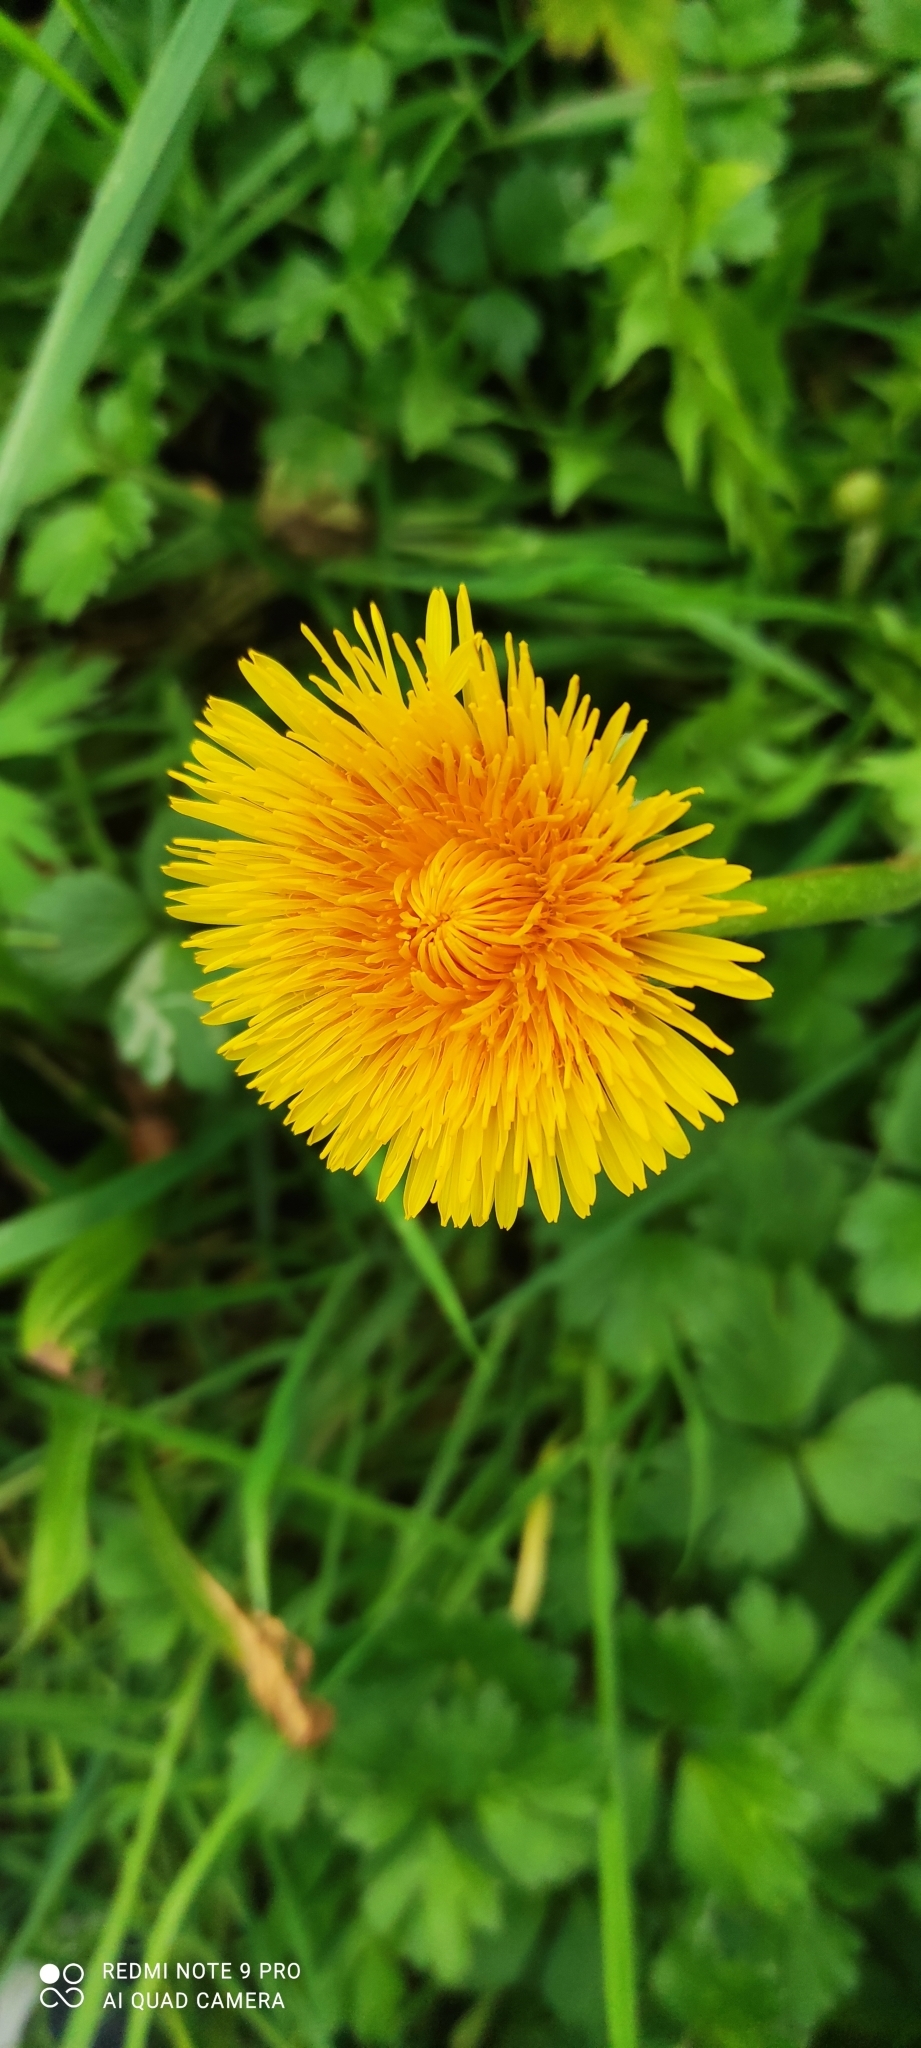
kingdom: Plantae
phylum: Tracheophyta
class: Magnoliopsida
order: Asterales
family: Asteraceae
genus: Taraxacum
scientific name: Taraxacum officinale
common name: Common dandelion
